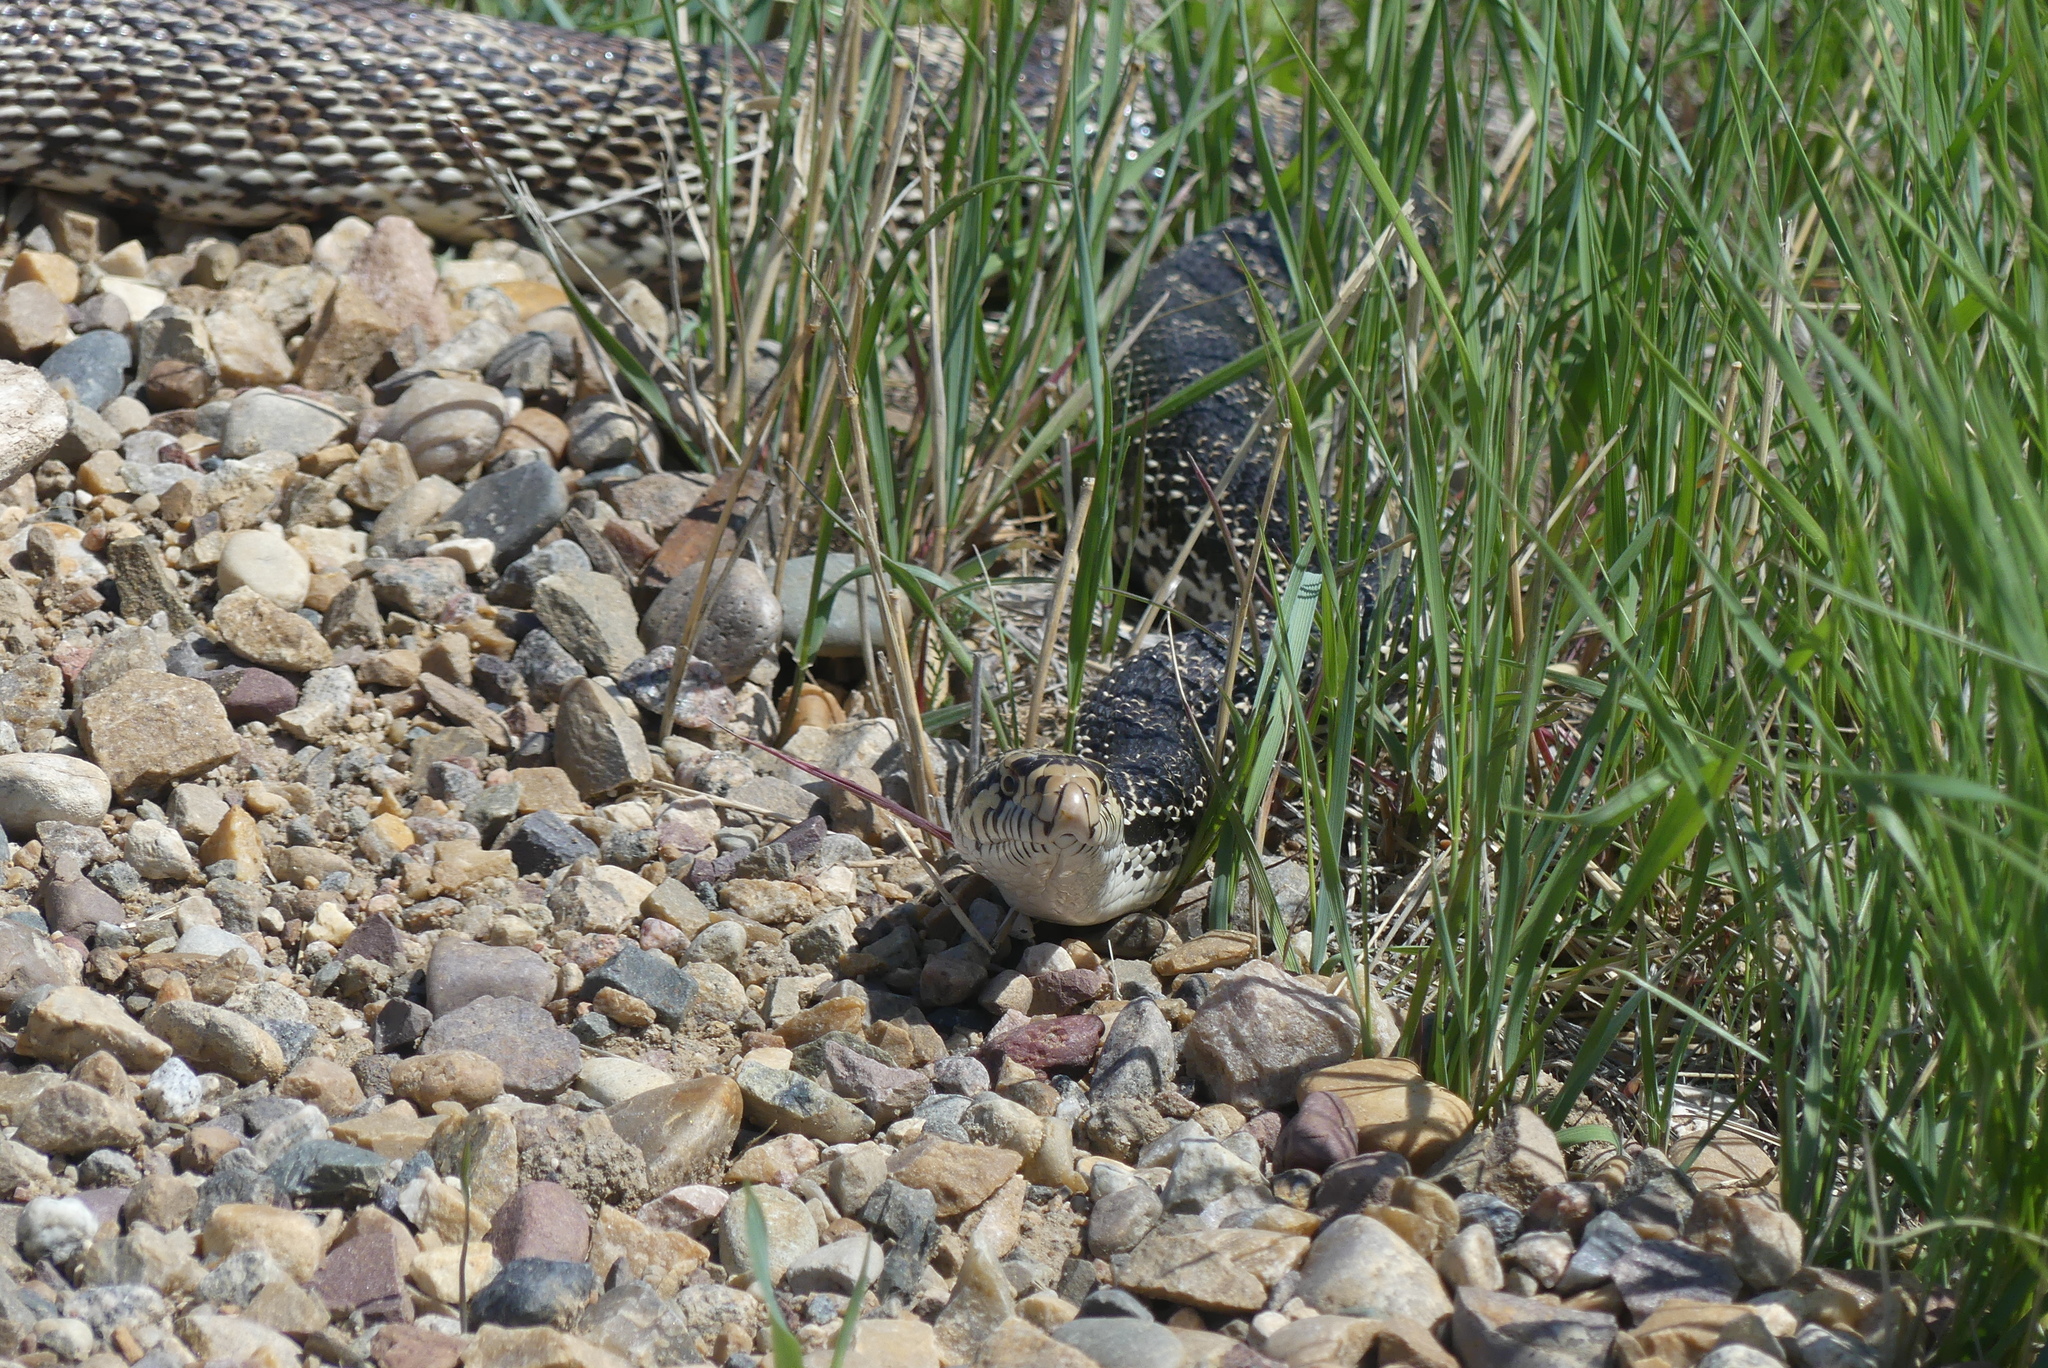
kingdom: Animalia
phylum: Chordata
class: Squamata
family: Colubridae
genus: Pituophis
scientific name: Pituophis catenifer
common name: Gopher snake
